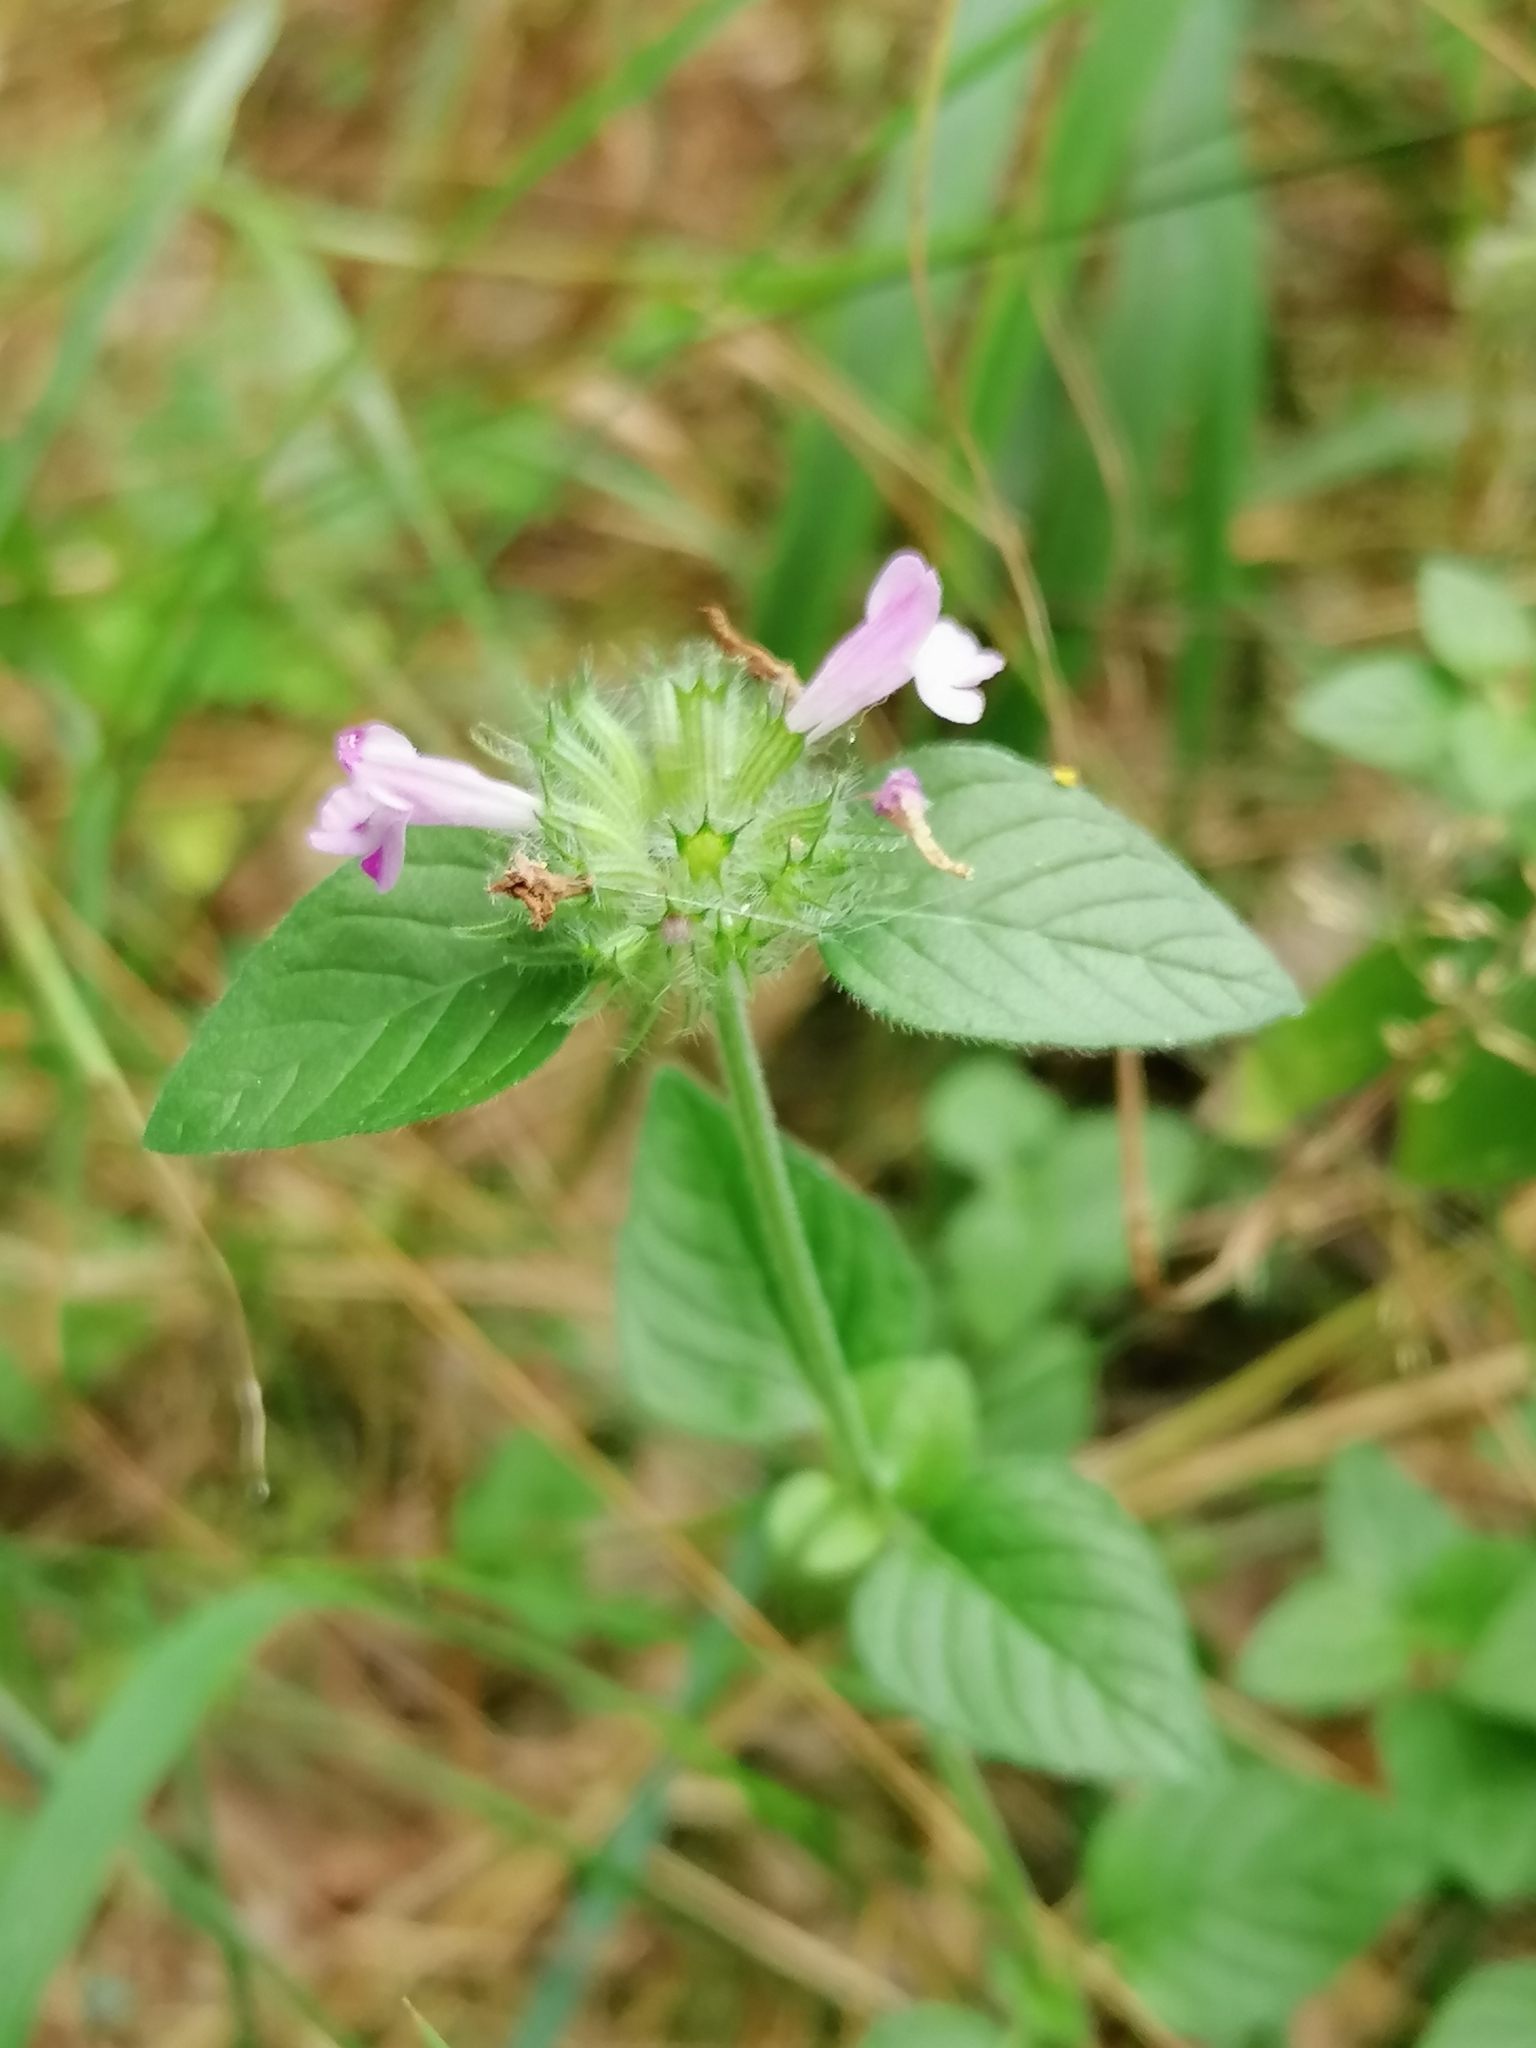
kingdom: Plantae
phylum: Tracheophyta
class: Magnoliopsida
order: Lamiales
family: Lamiaceae
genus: Clinopodium
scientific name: Clinopodium vulgare
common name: Wild basil
